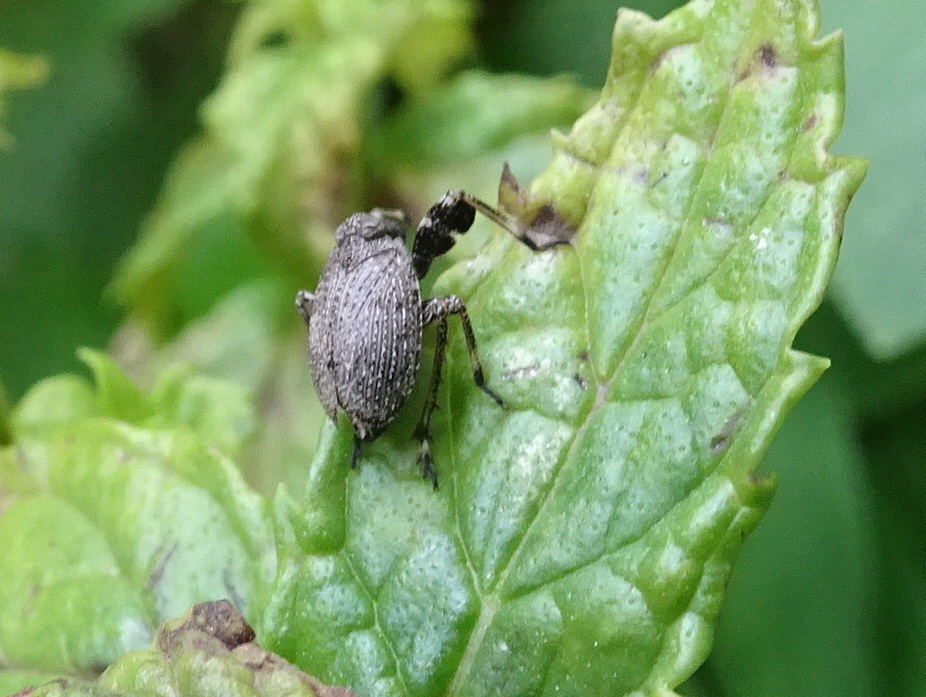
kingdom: Animalia
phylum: Arthropoda
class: Insecta
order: Hemiptera
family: Dictyopharidae
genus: Phylloscelis
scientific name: Phylloscelis pallescens
